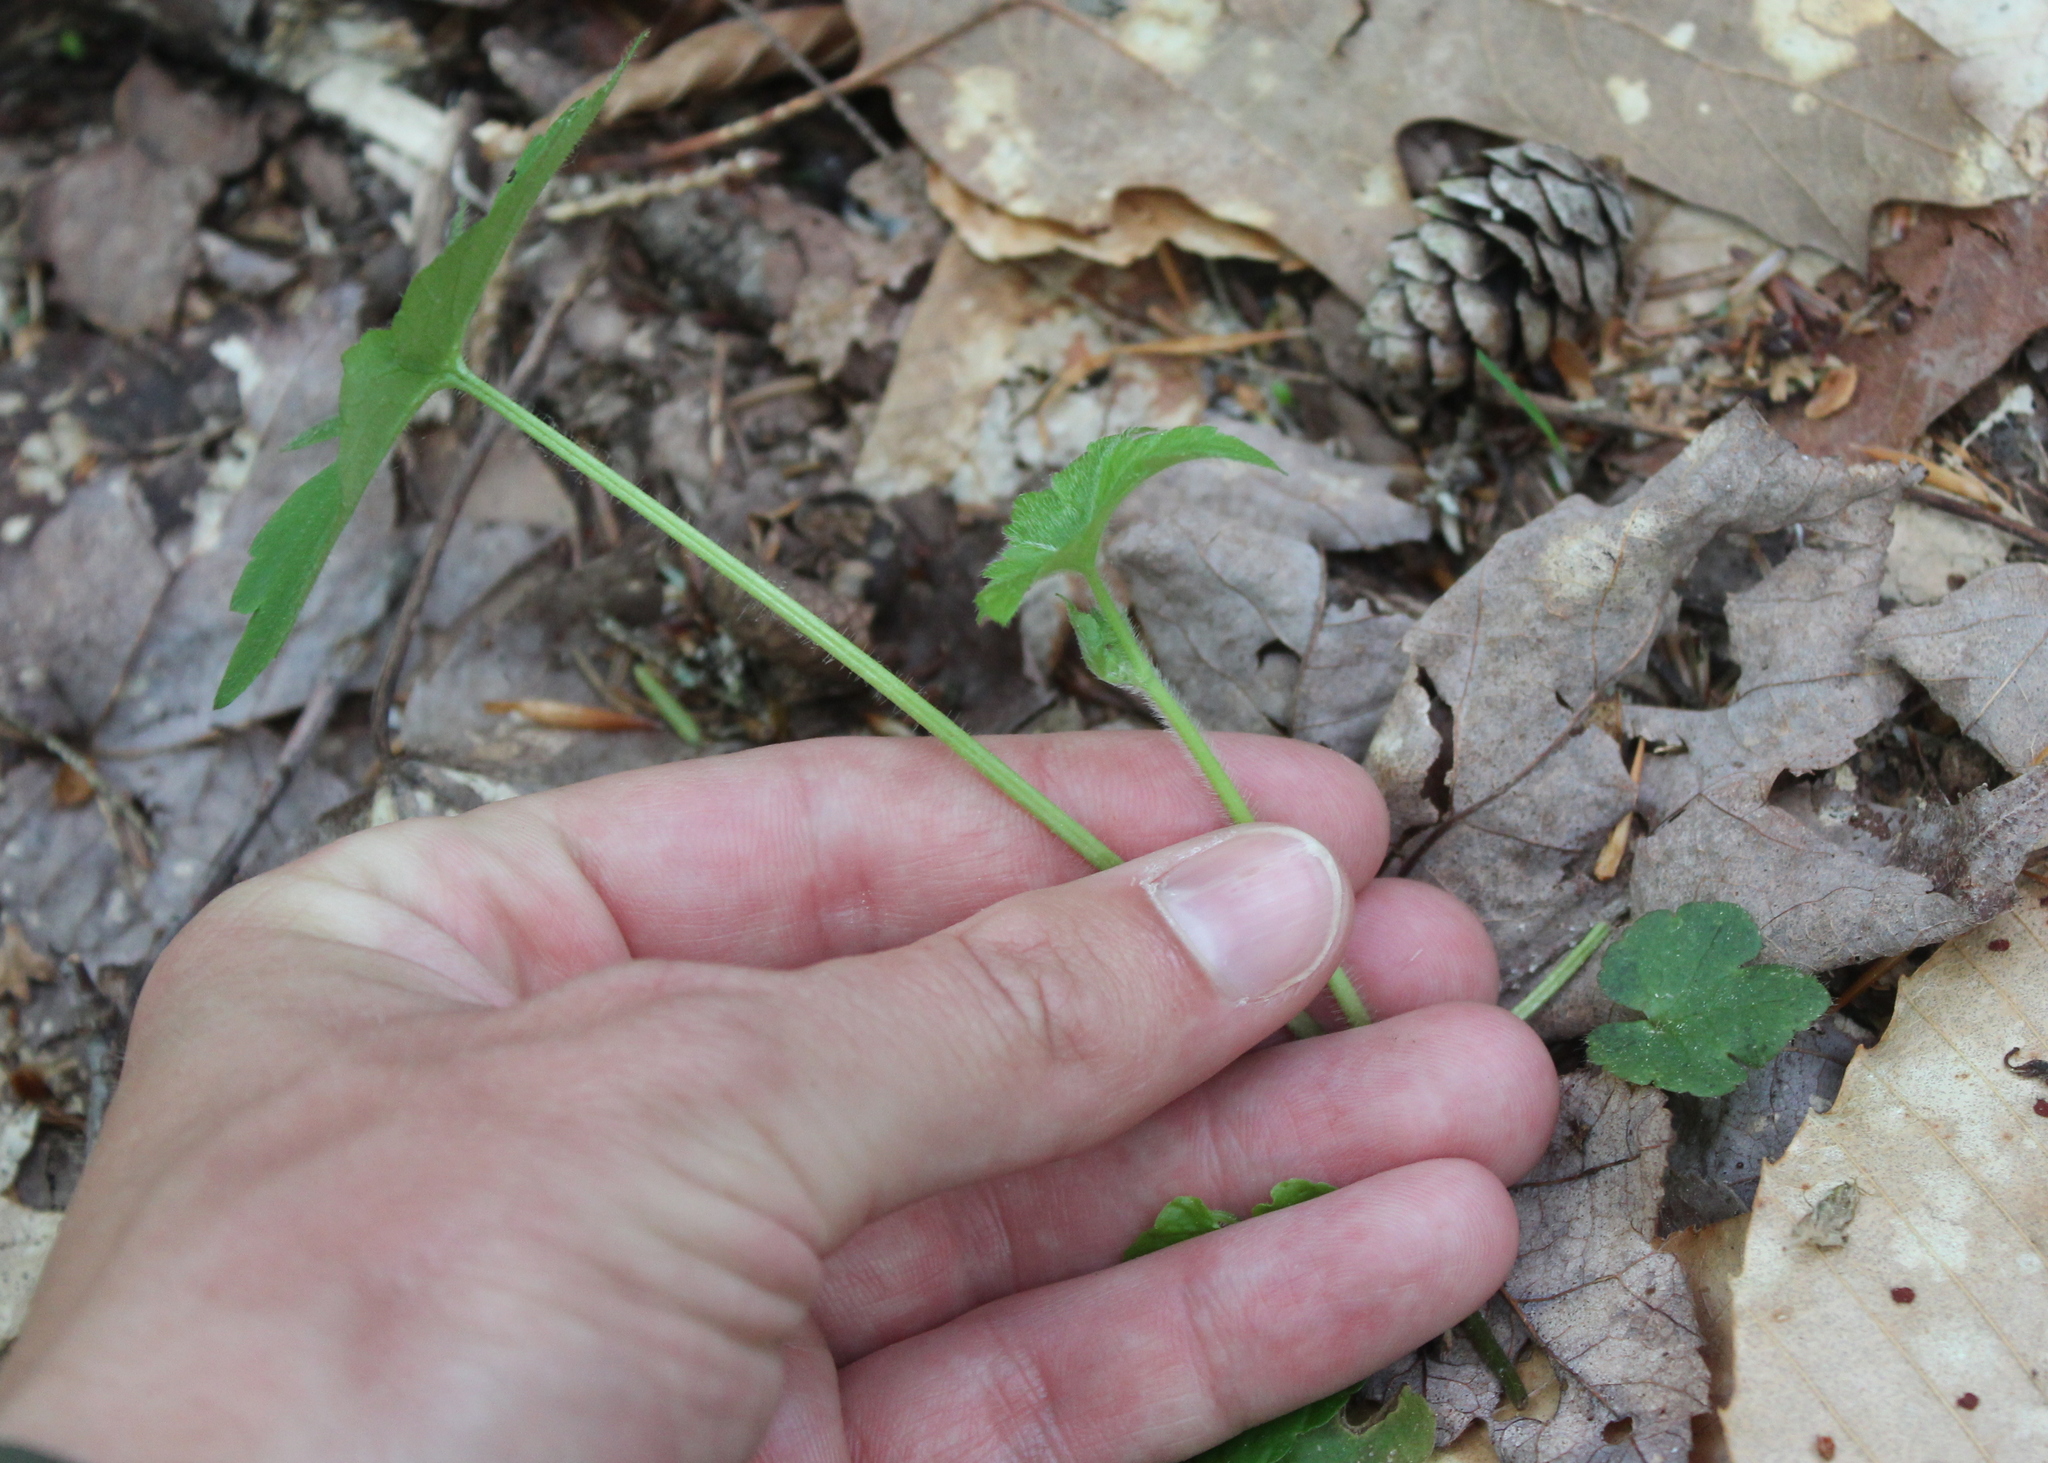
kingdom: Plantae
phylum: Tracheophyta
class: Magnoliopsida
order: Ranunculales
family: Ranunculaceae
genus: Ranunculus
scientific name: Ranunculus recurvatus
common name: Blisterwort
